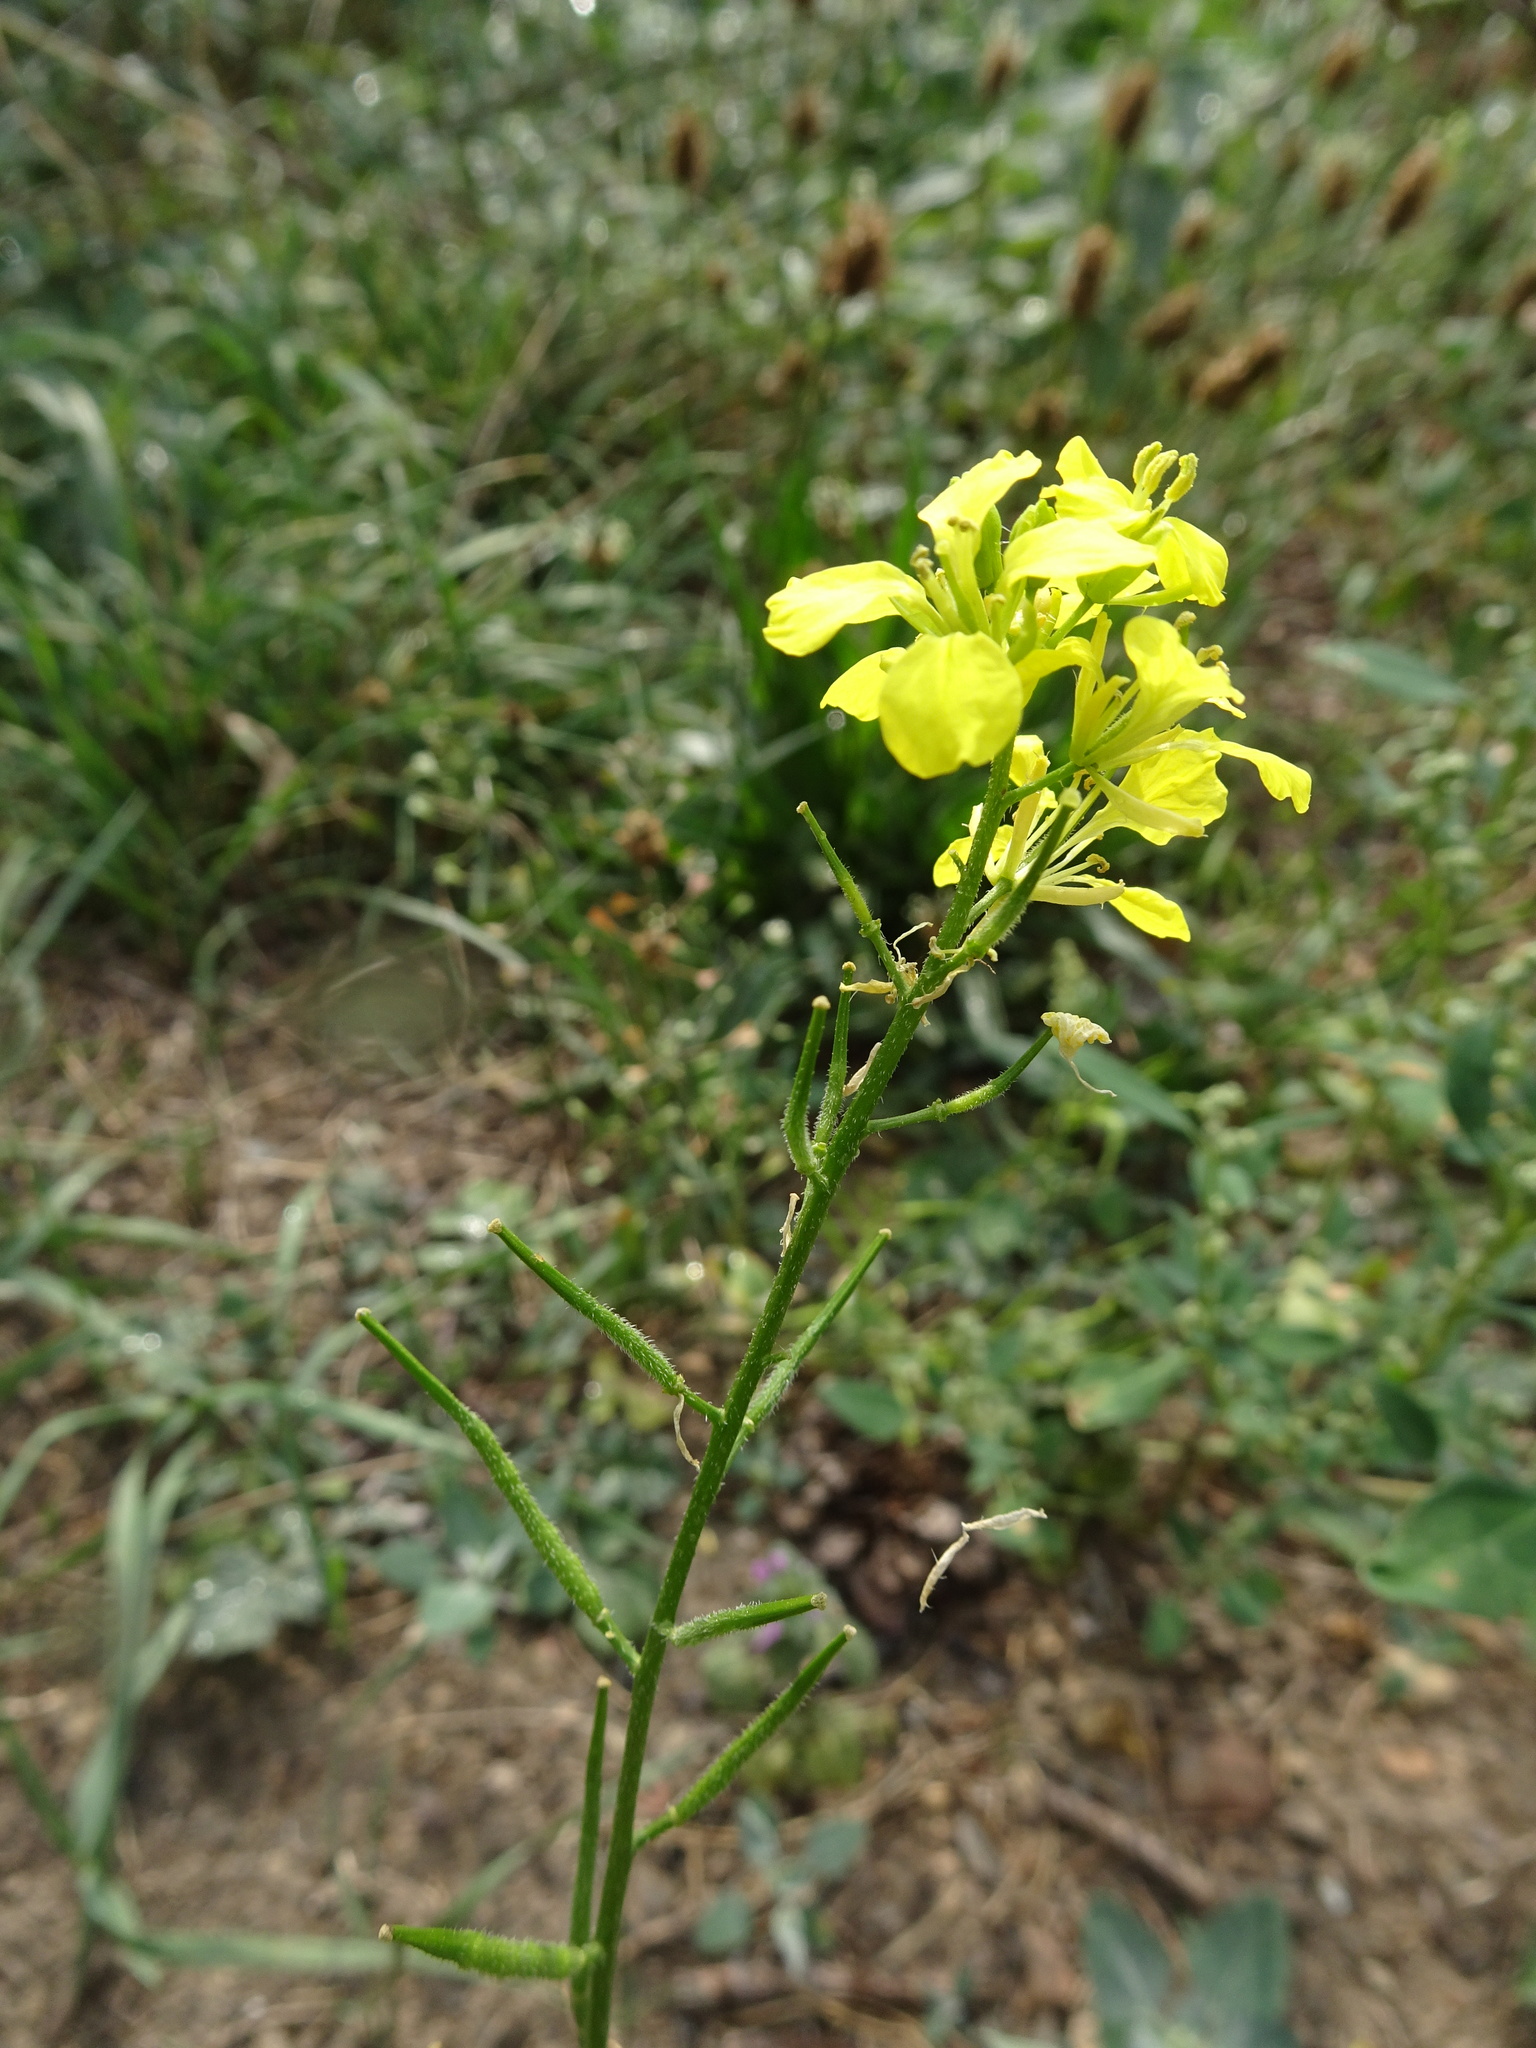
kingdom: Plantae
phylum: Tracheophyta
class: Magnoliopsida
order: Brassicales
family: Brassicaceae
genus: Sinapis
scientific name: Sinapis arvensis
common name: Charlock
